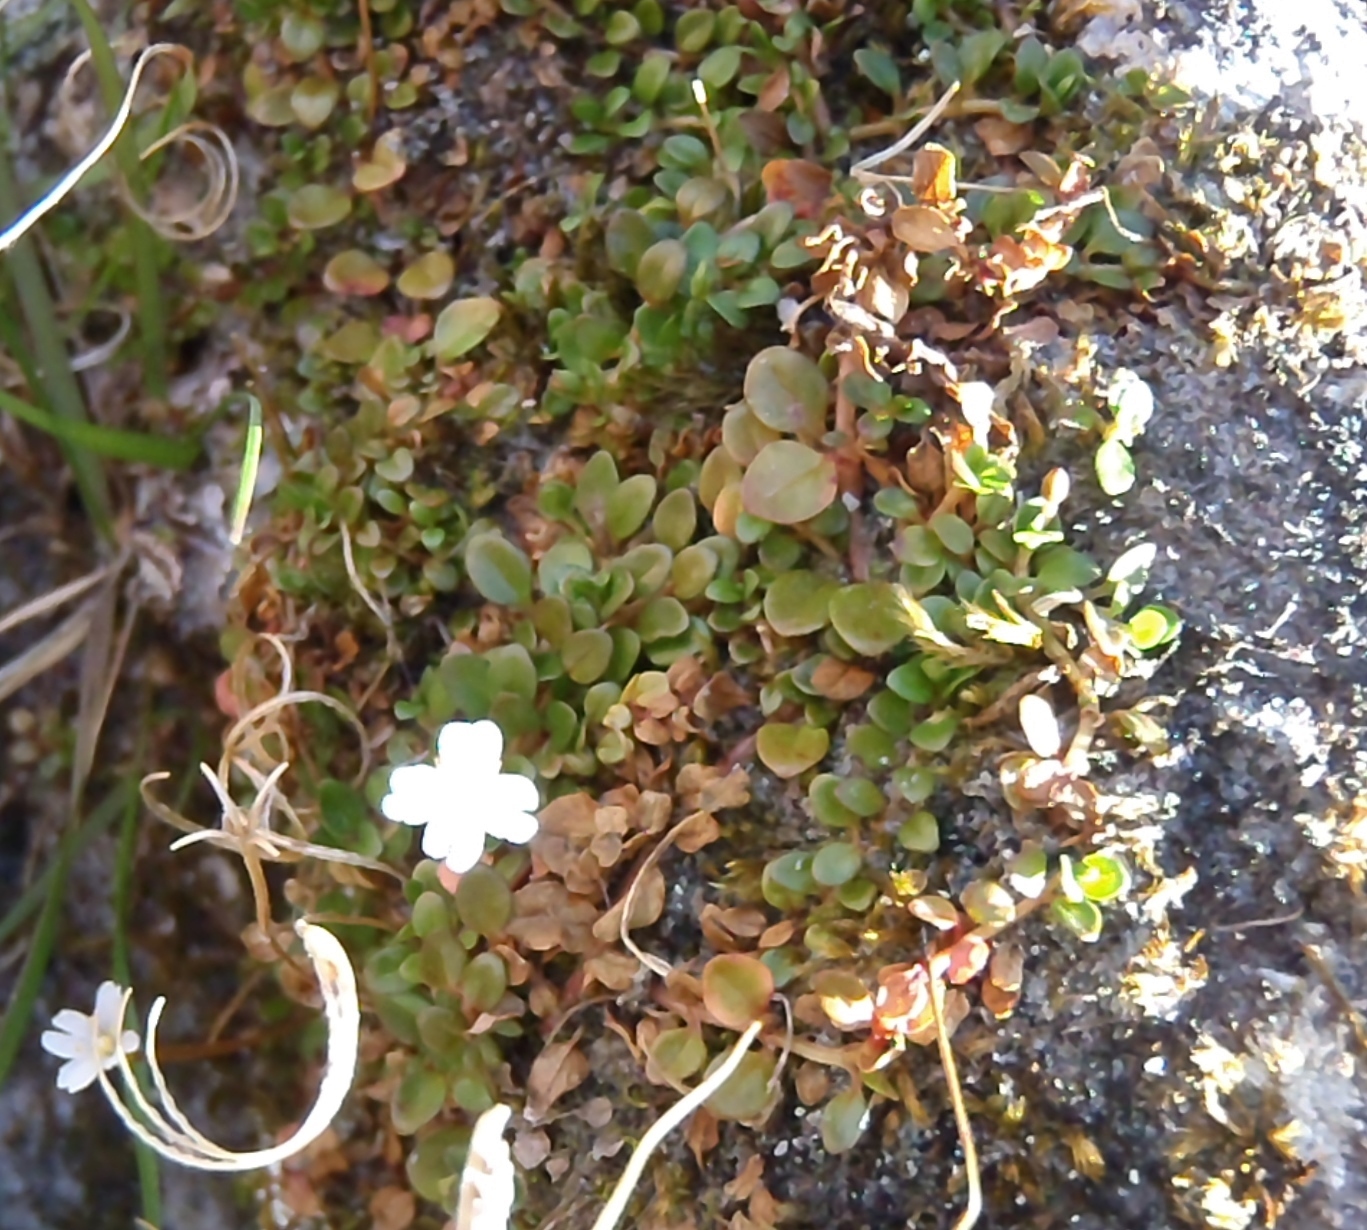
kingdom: Plantae
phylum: Tracheophyta
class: Magnoliopsida
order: Myrtales
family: Onagraceae
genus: Epilobium
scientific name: Epilobium brunnescens
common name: New zealand willowherb
